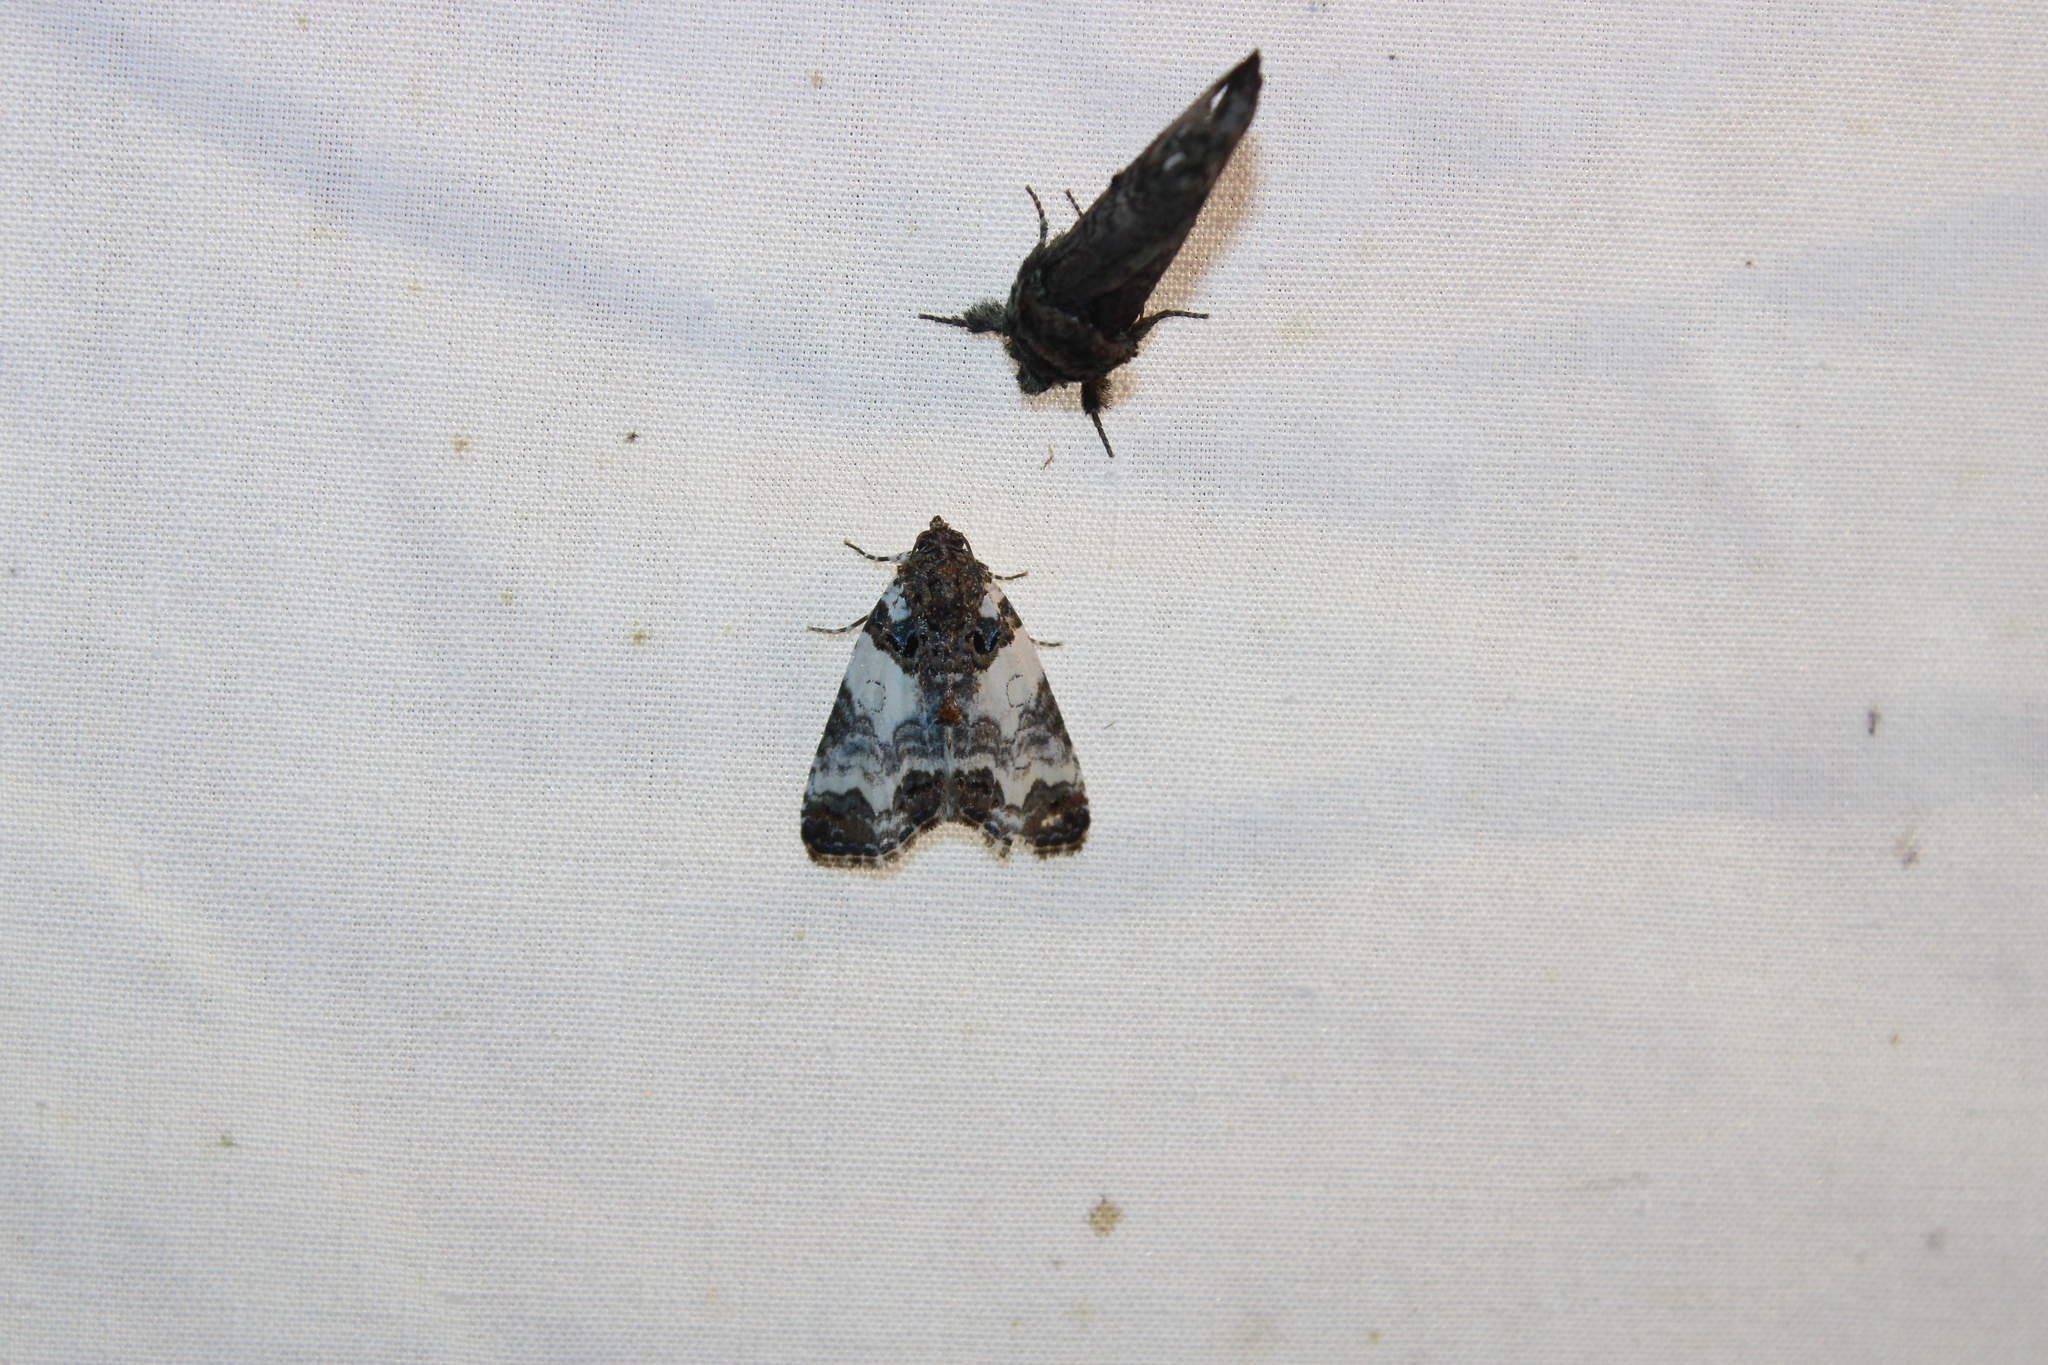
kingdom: Animalia
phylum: Arthropoda
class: Insecta
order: Lepidoptera
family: Noctuidae
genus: Cerma
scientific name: Cerma cerintha
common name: Tufted bird-dropping moth
